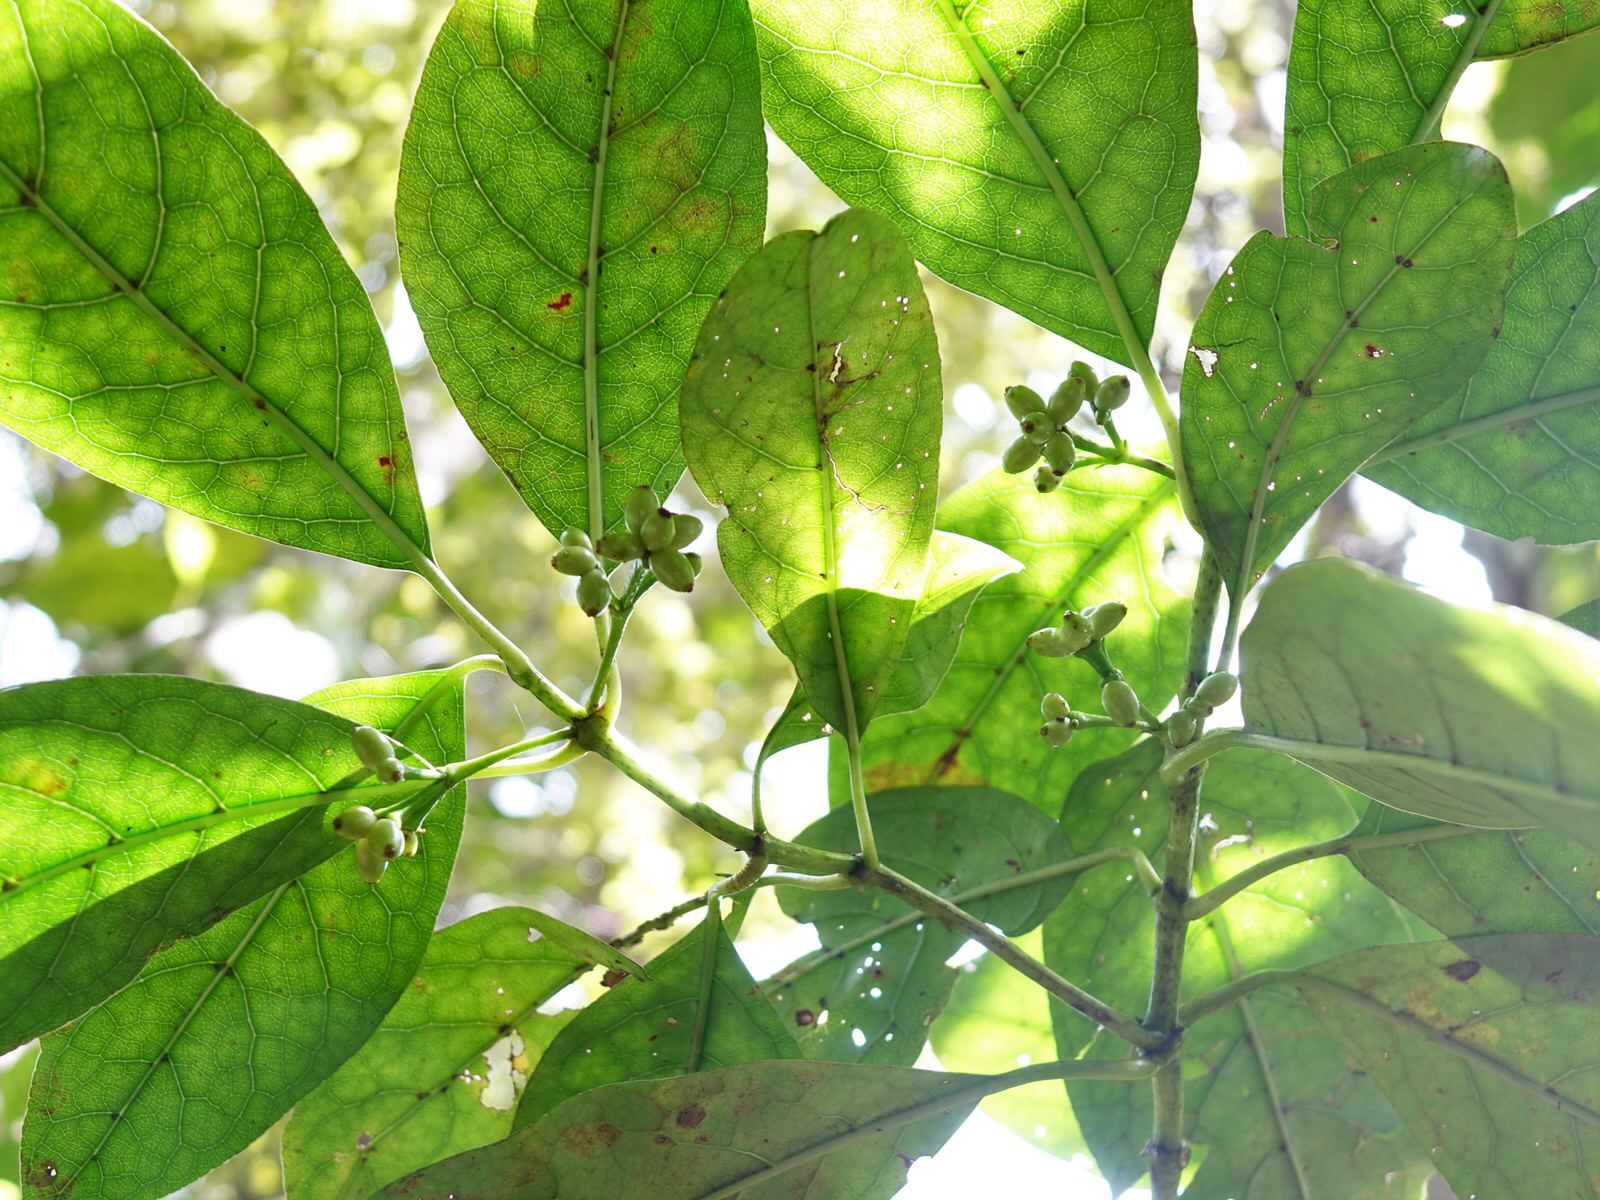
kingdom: Plantae
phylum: Tracheophyta
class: Magnoliopsida
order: Gentianales
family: Rubiaceae
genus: Coprosma
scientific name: Coprosma autumnalis
